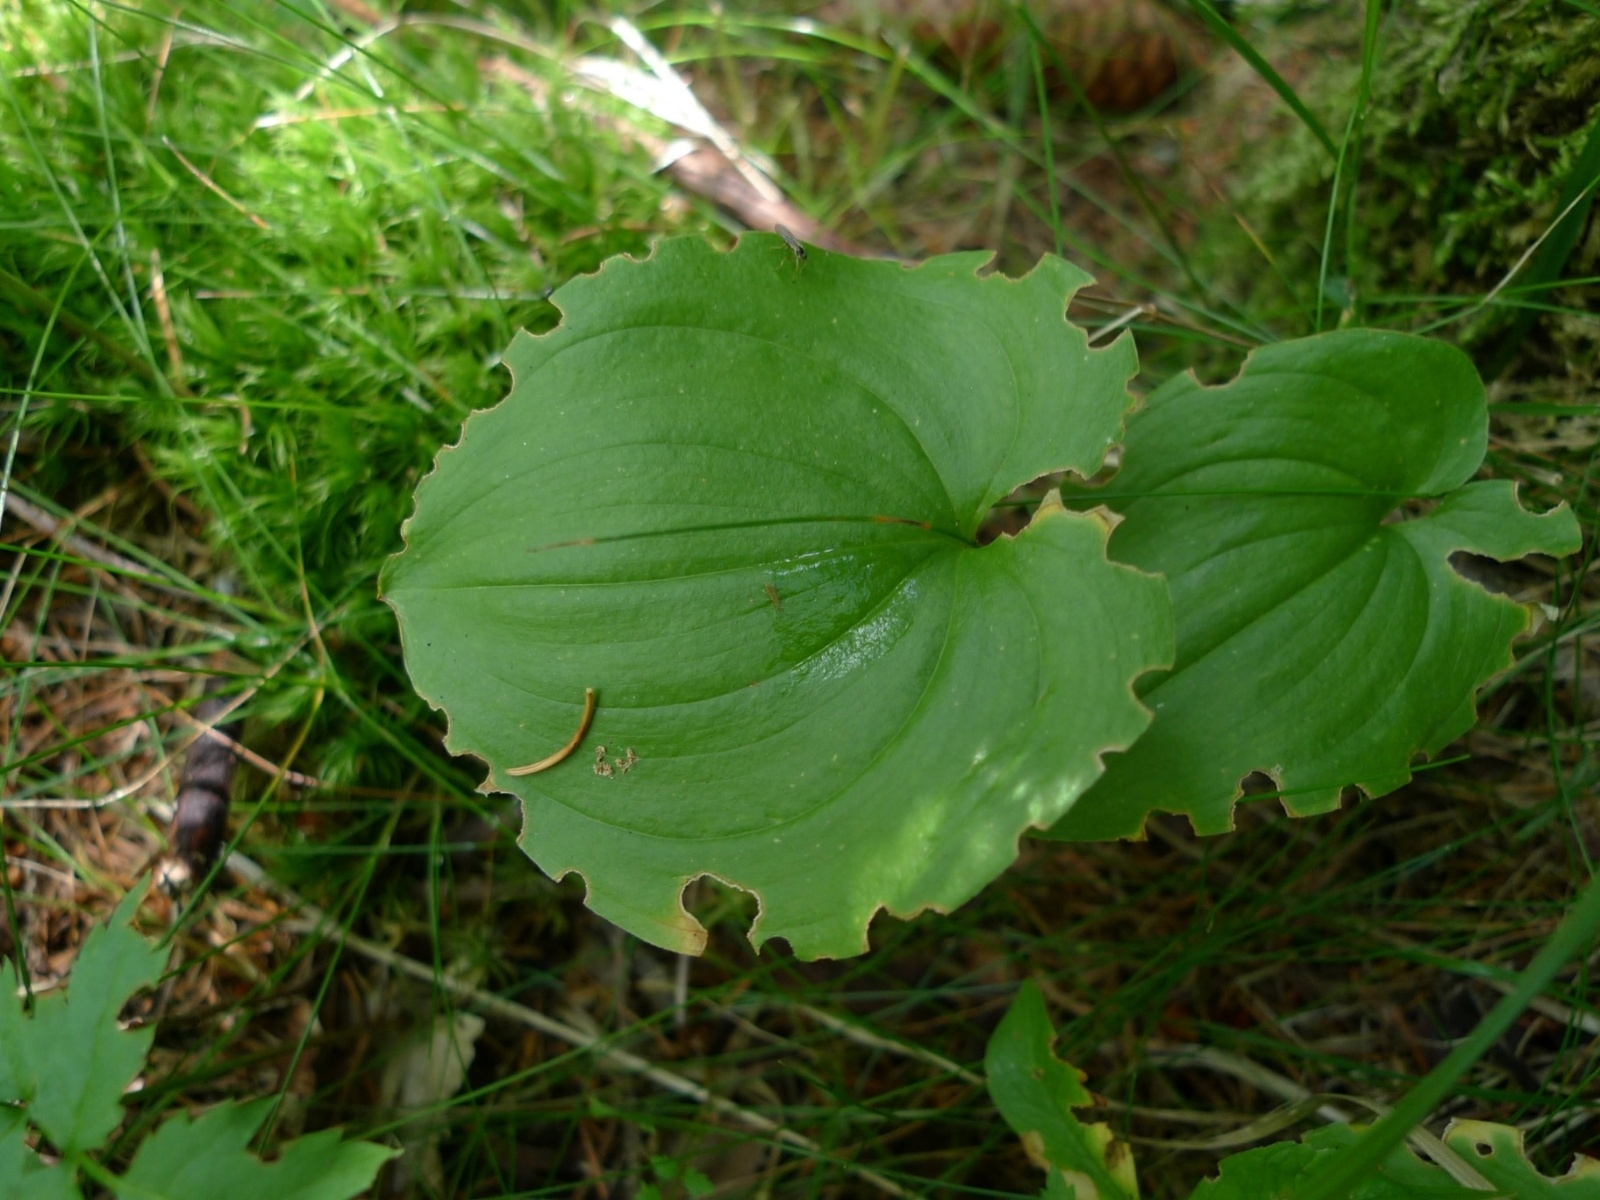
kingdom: Plantae
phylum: Tracheophyta
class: Liliopsida
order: Asparagales
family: Asparagaceae
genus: Maianthemum
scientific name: Maianthemum bifolium
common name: May lily
